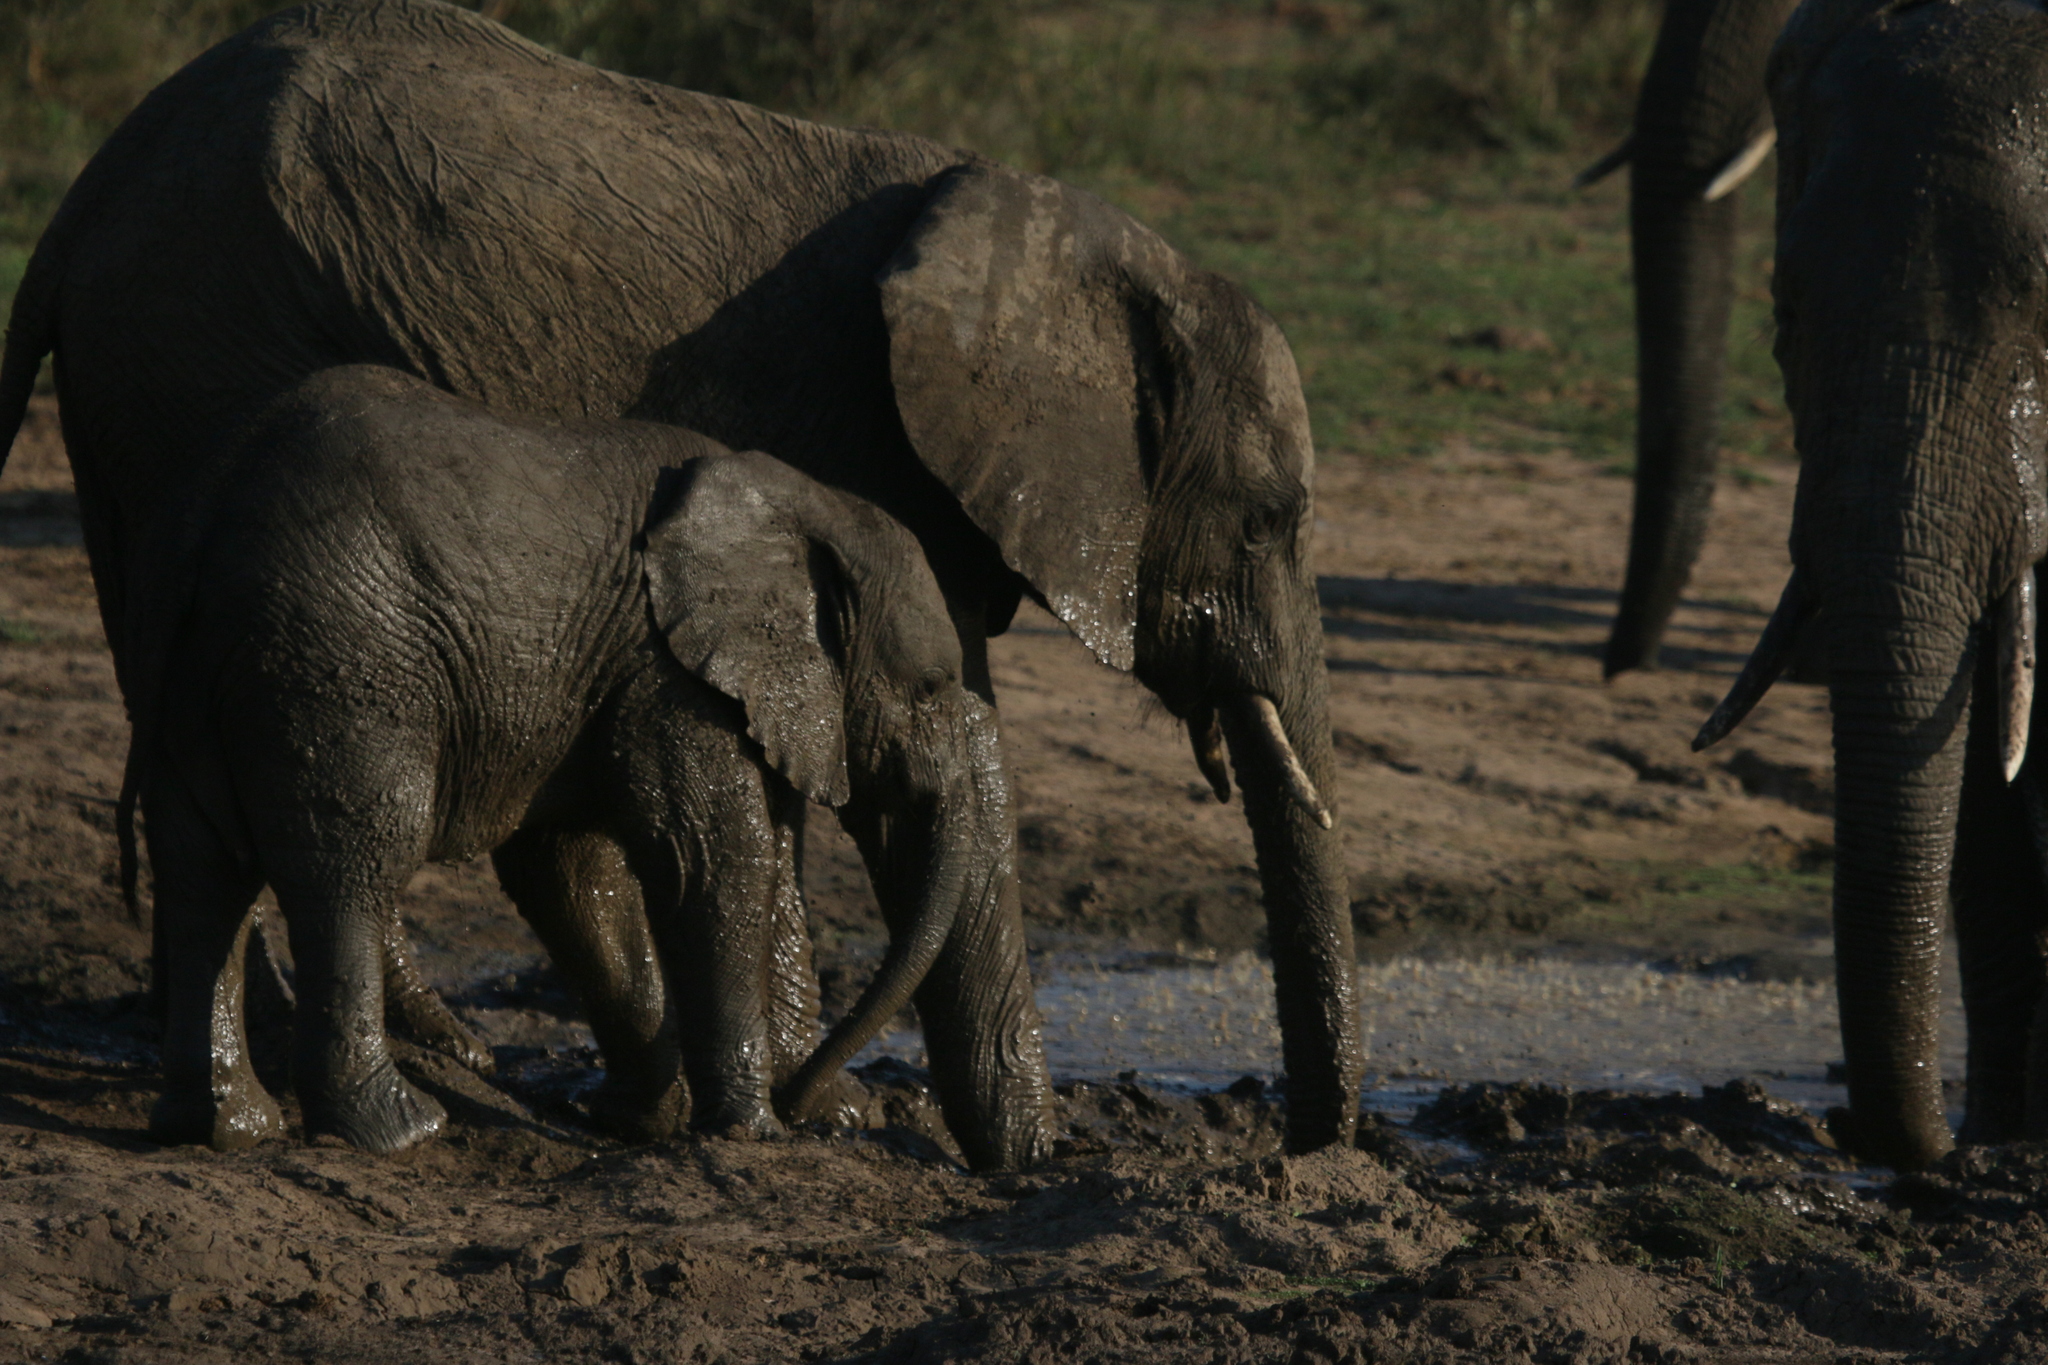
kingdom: Animalia
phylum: Chordata
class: Mammalia
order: Proboscidea
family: Elephantidae
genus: Loxodonta
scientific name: Loxodonta africana
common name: African elephant
